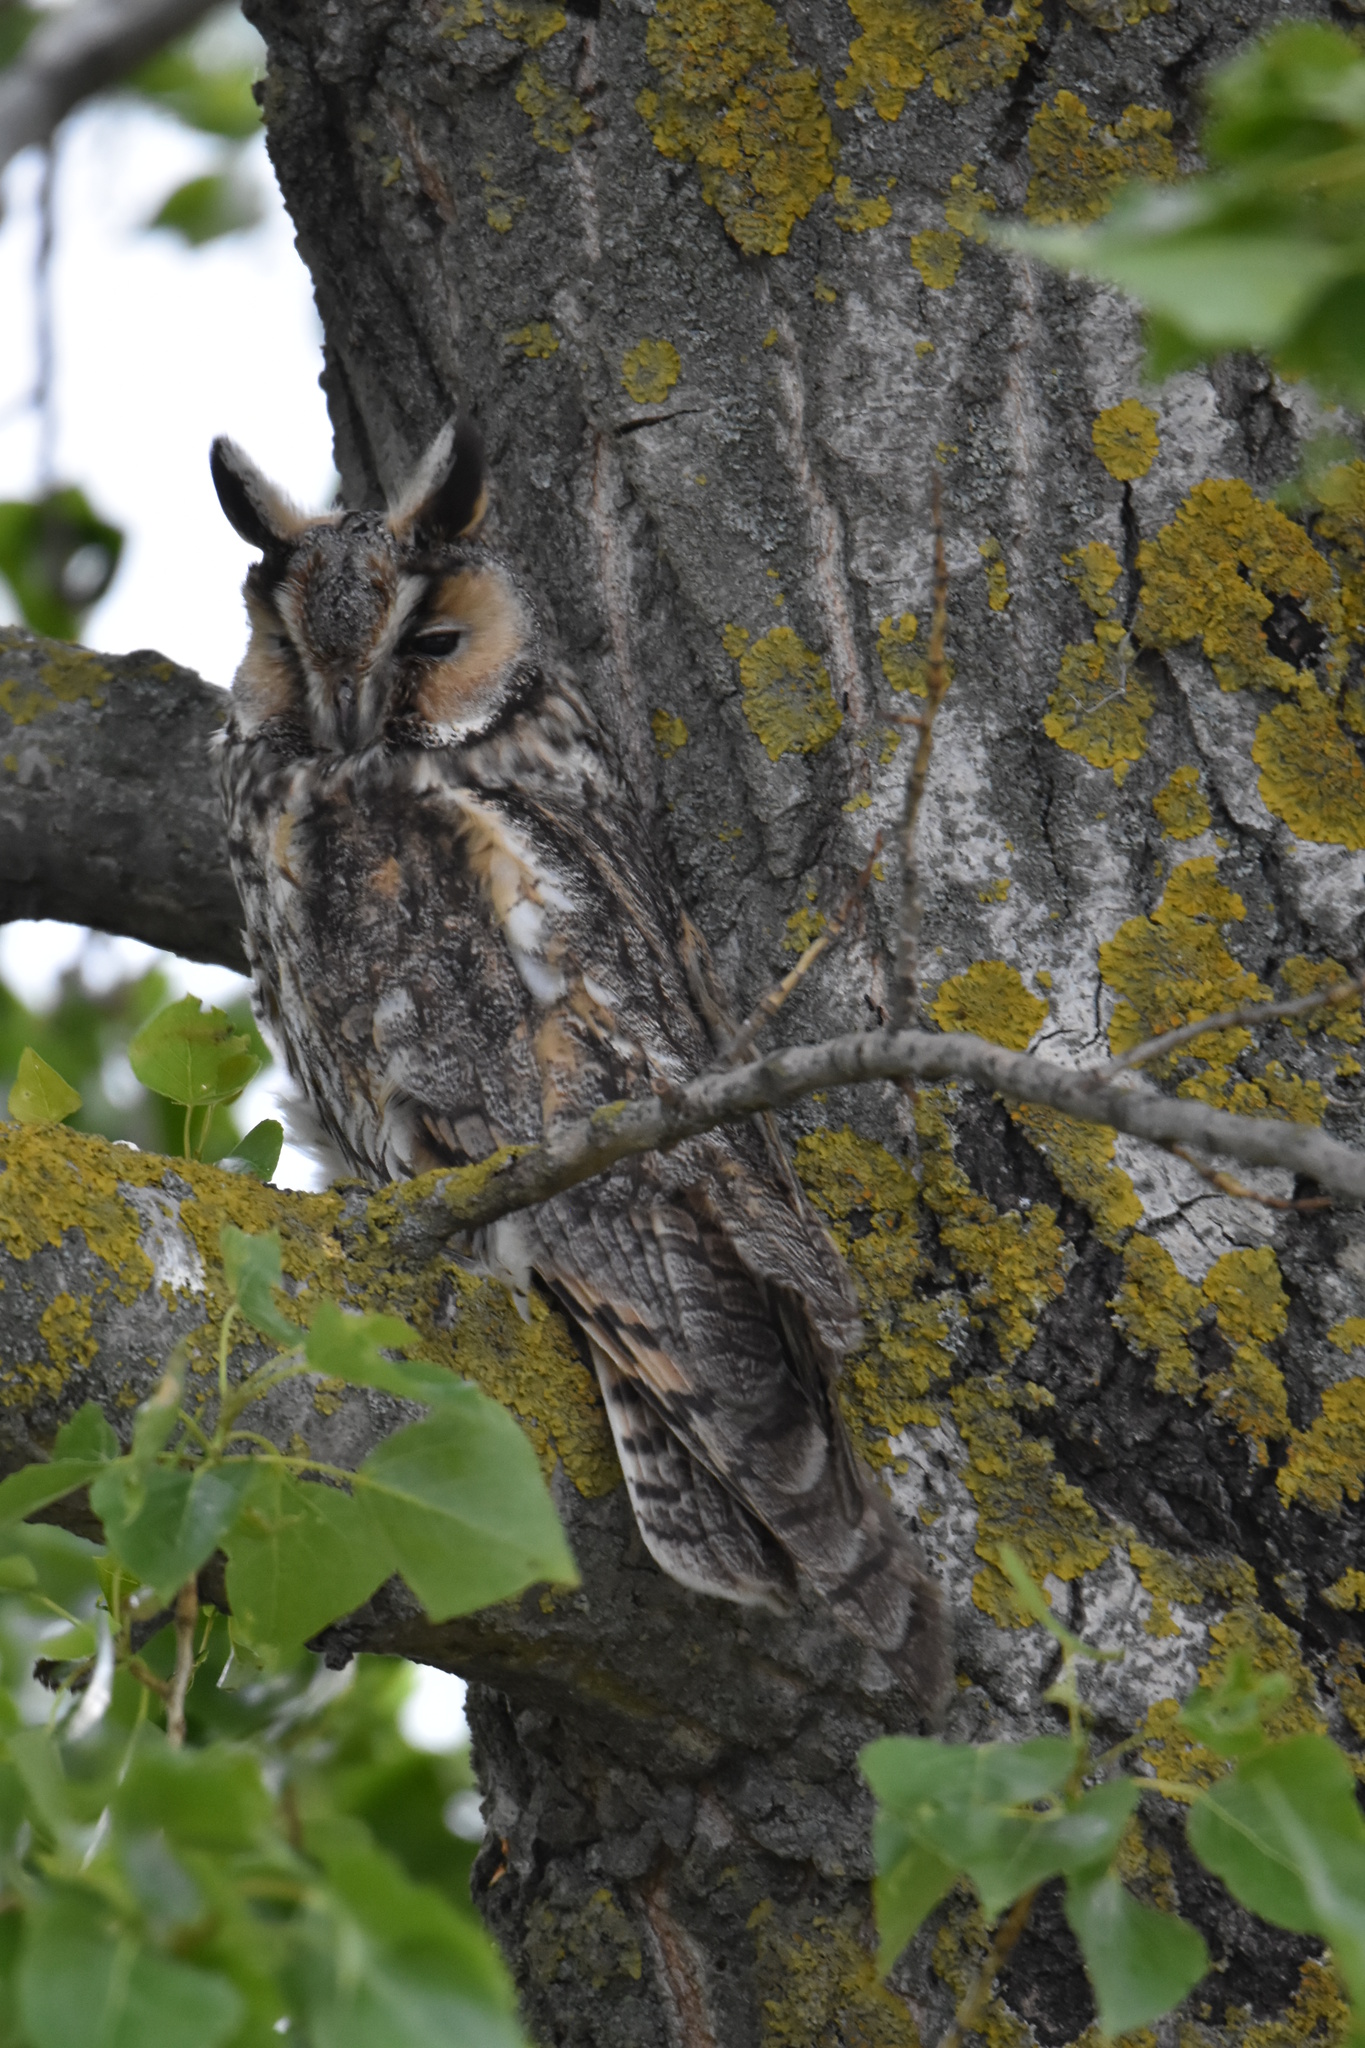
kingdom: Animalia
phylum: Chordata
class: Aves
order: Strigiformes
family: Strigidae
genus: Asio
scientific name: Asio otus
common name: Long-eared owl
